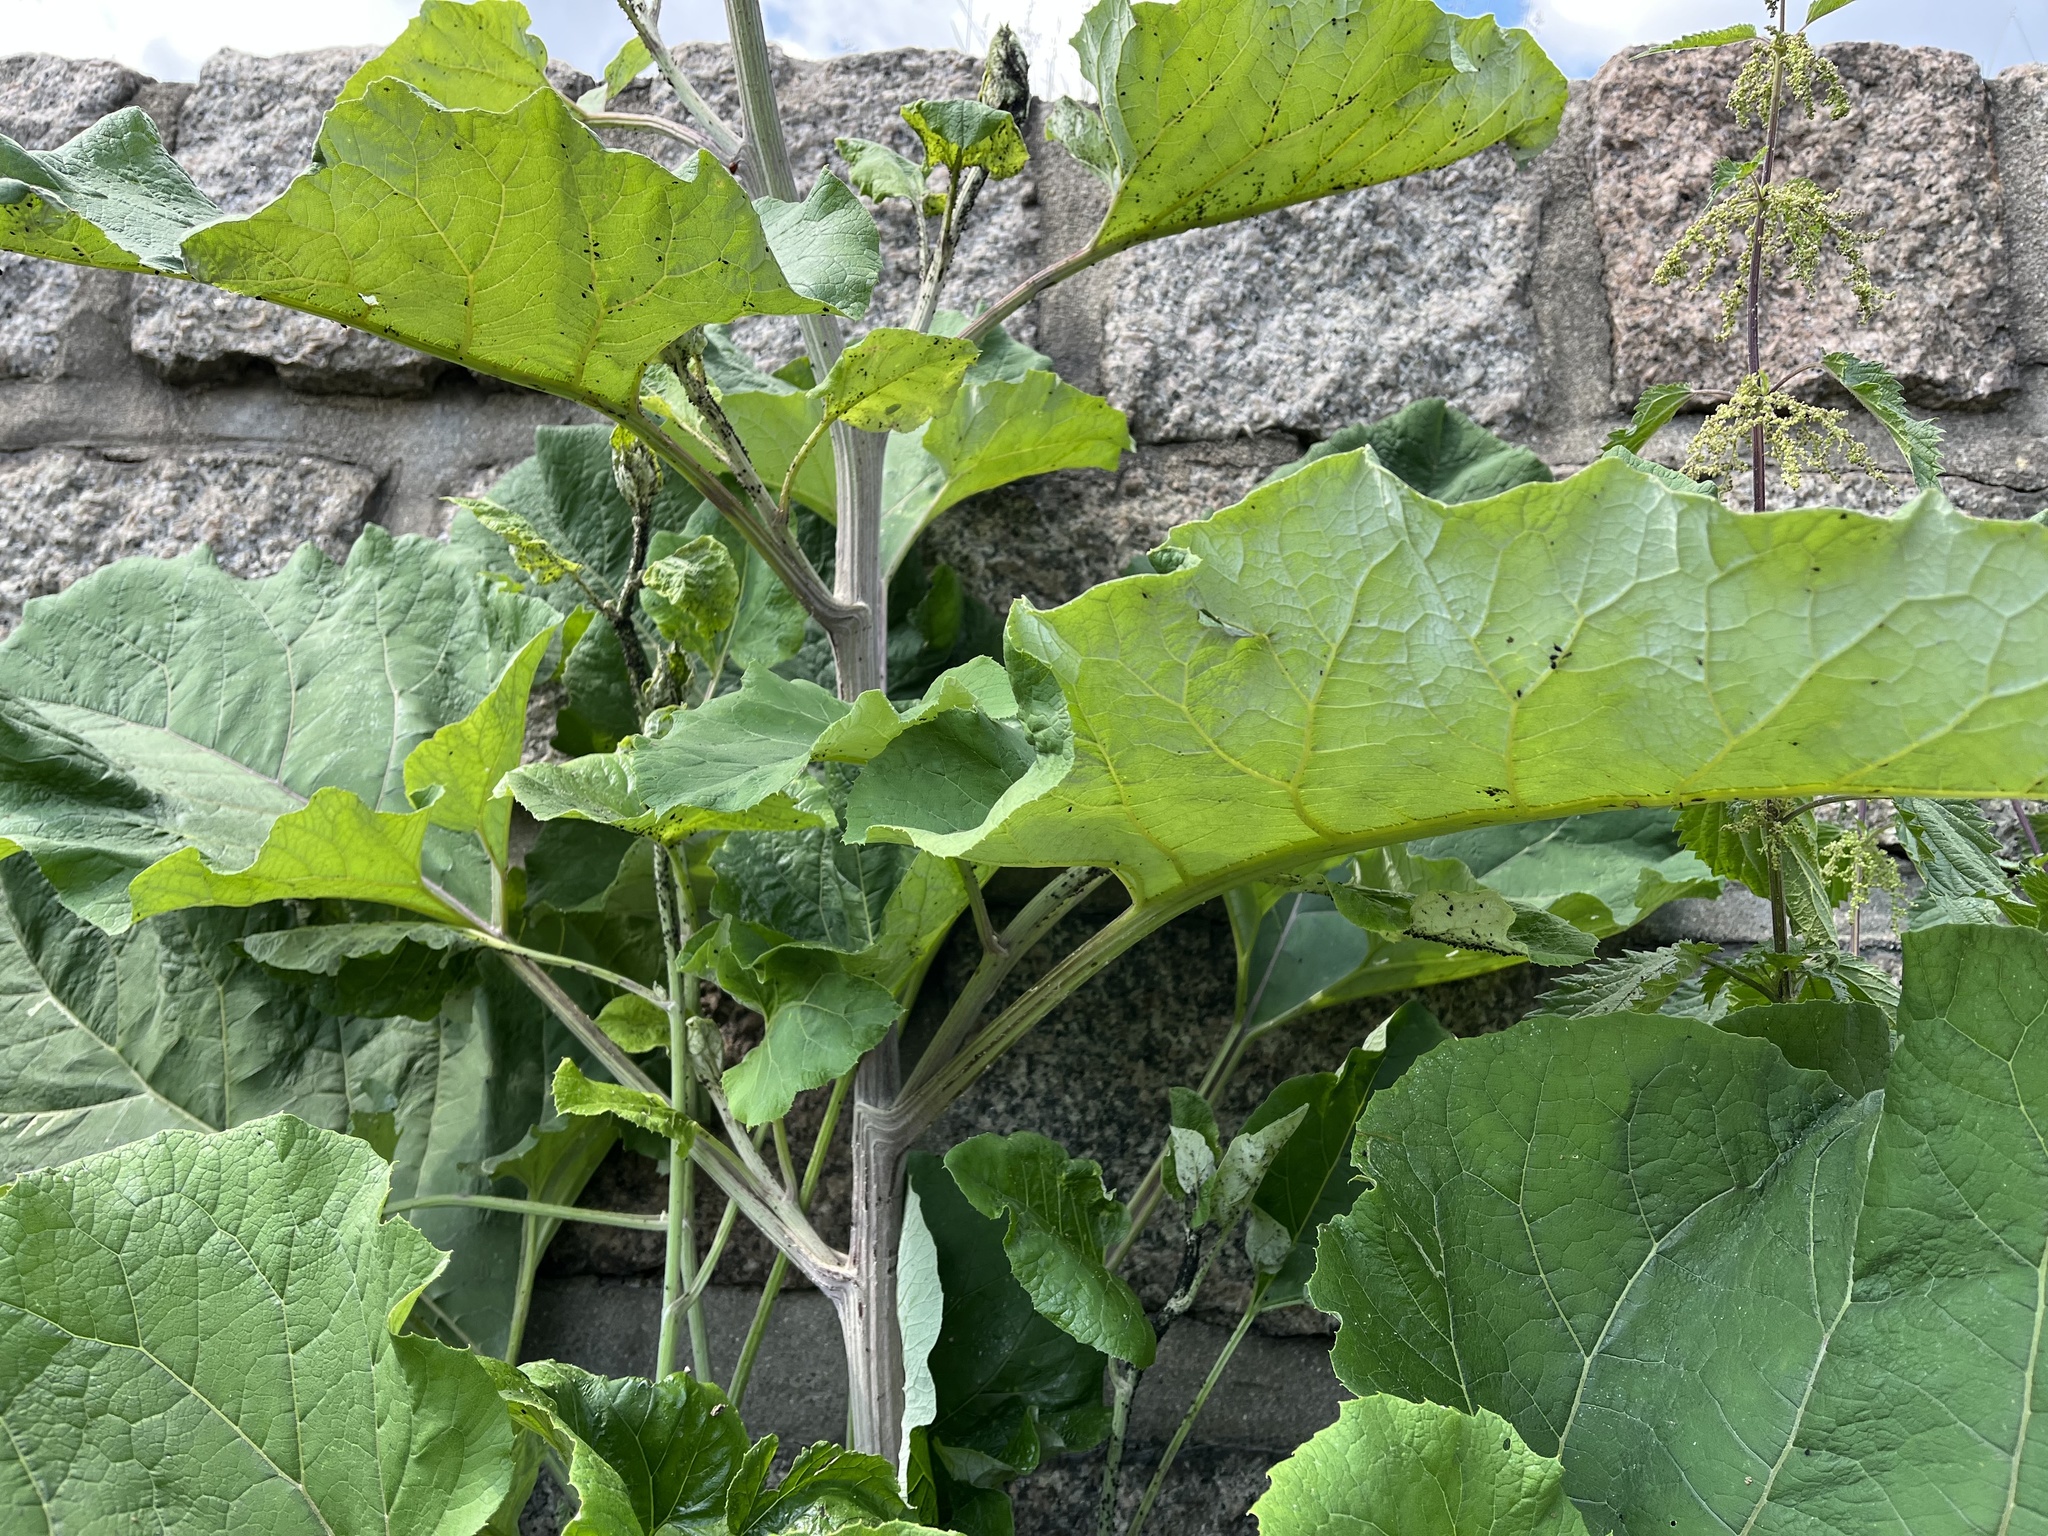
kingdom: Plantae
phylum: Tracheophyta
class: Magnoliopsida
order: Asterales
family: Asteraceae
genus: Arctium
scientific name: Arctium
